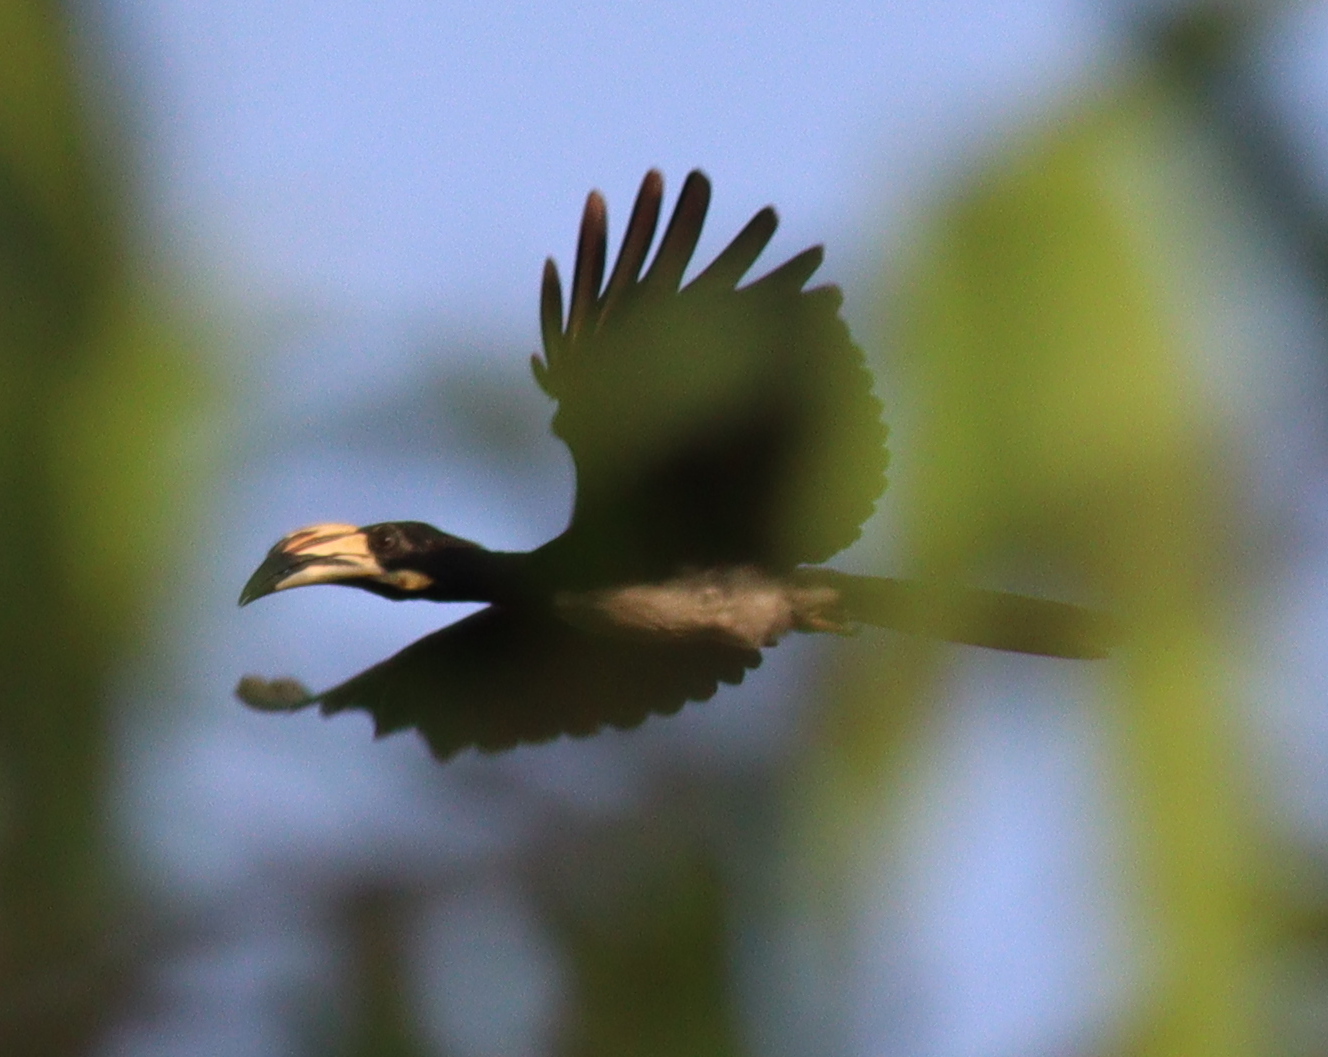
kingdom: Animalia
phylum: Chordata
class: Aves
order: Bucerotiformes
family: Bucerotidae
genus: Lophoceros
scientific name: Lophoceros fasciatus
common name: African pied hornbill
